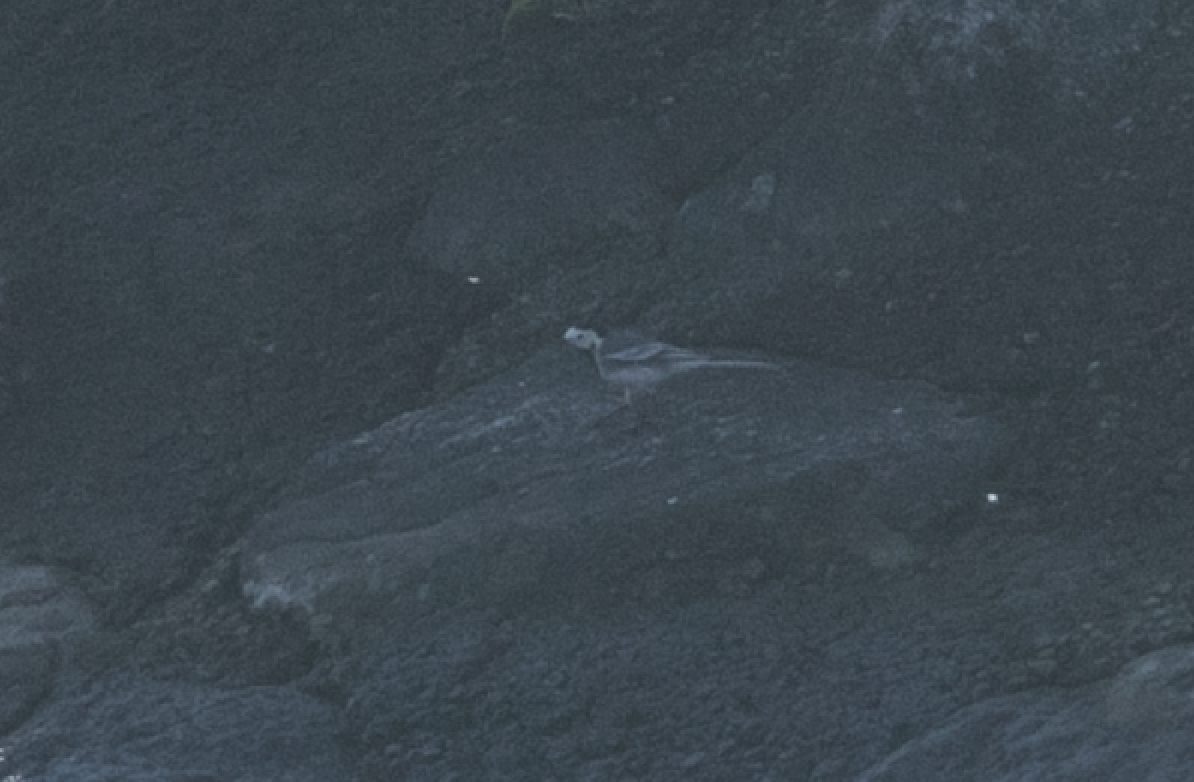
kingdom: Animalia
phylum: Chordata
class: Aves
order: Passeriformes
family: Motacillidae
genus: Motacilla
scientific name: Motacilla alba
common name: White wagtail
